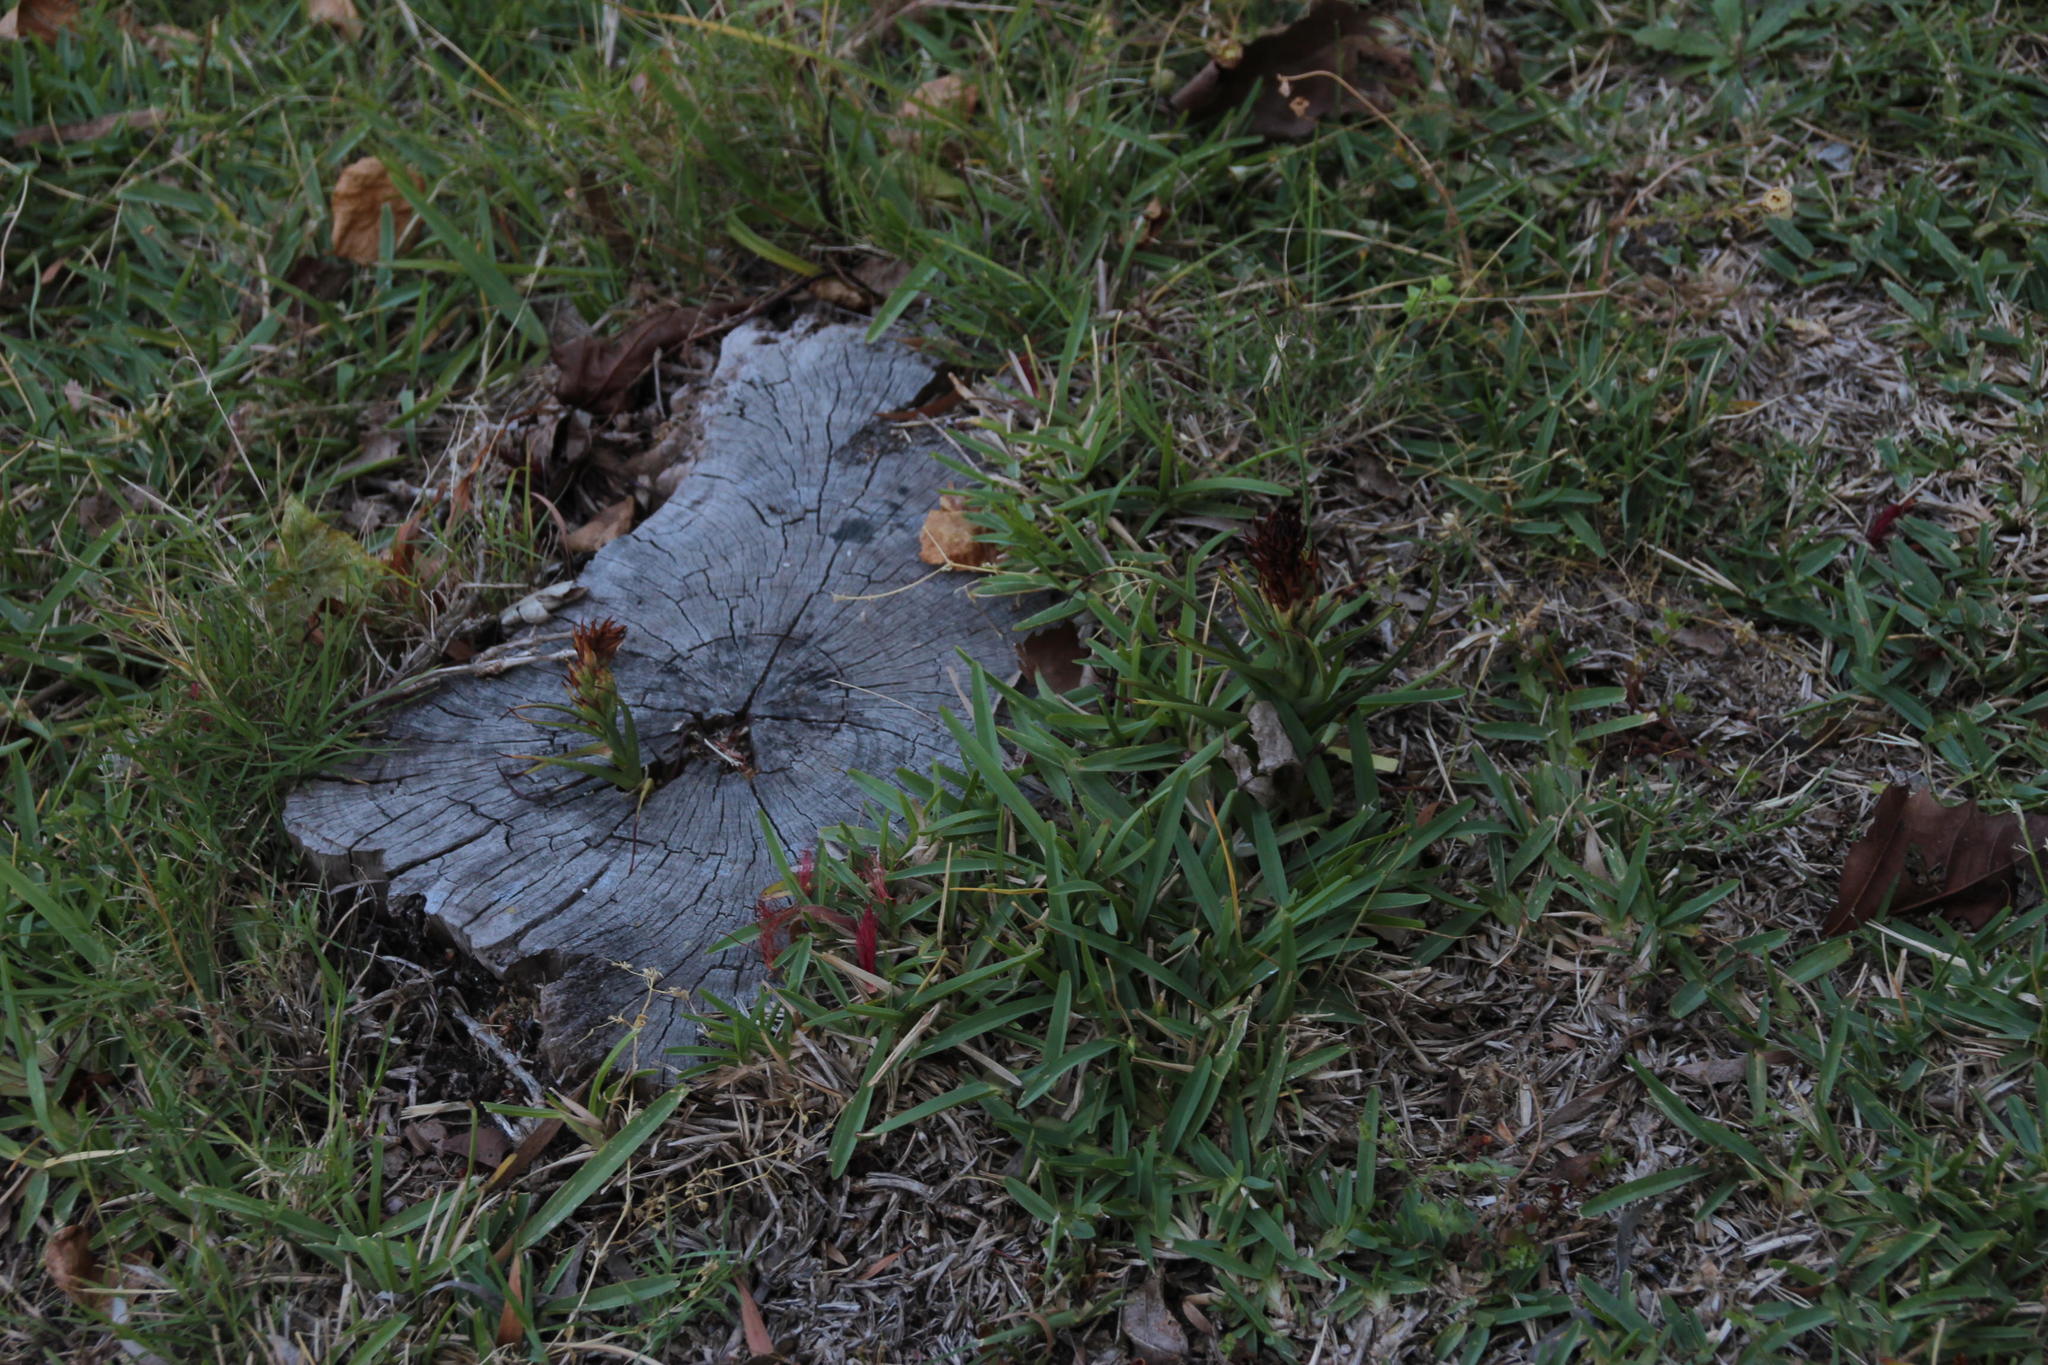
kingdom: Plantae
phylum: Tracheophyta
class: Liliopsida
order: Asparagales
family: Orchidaceae
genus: Disa
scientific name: Disa bracteata
